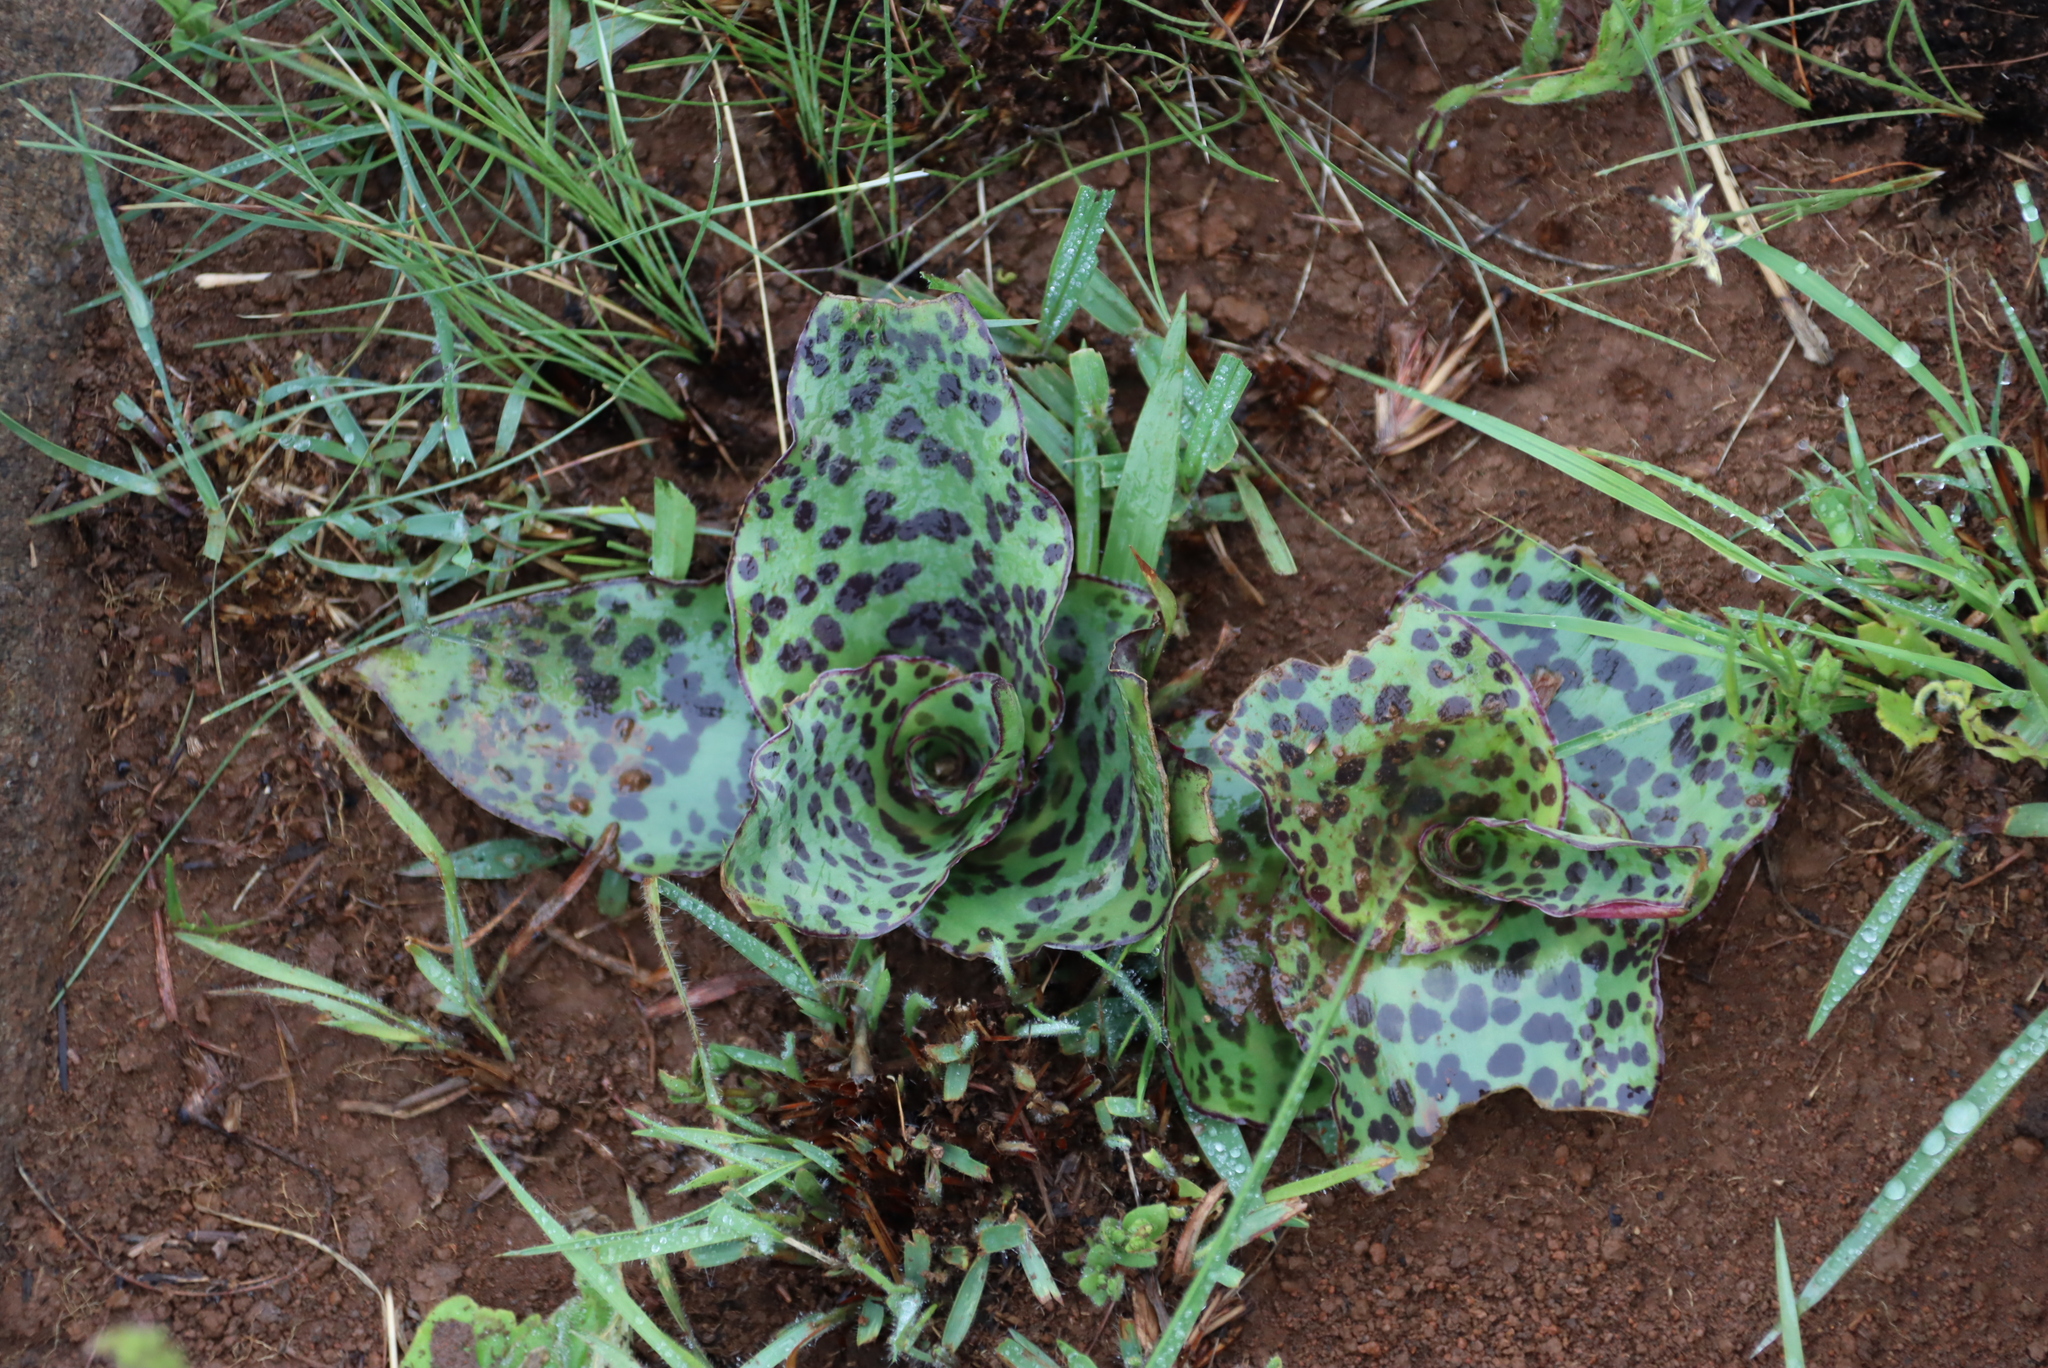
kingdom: Plantae
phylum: Tracheophyta
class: Liliopsida
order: Asparagales
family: Asparagaceae
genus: Ledebouria
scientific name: Ledebouria ovatifolia
